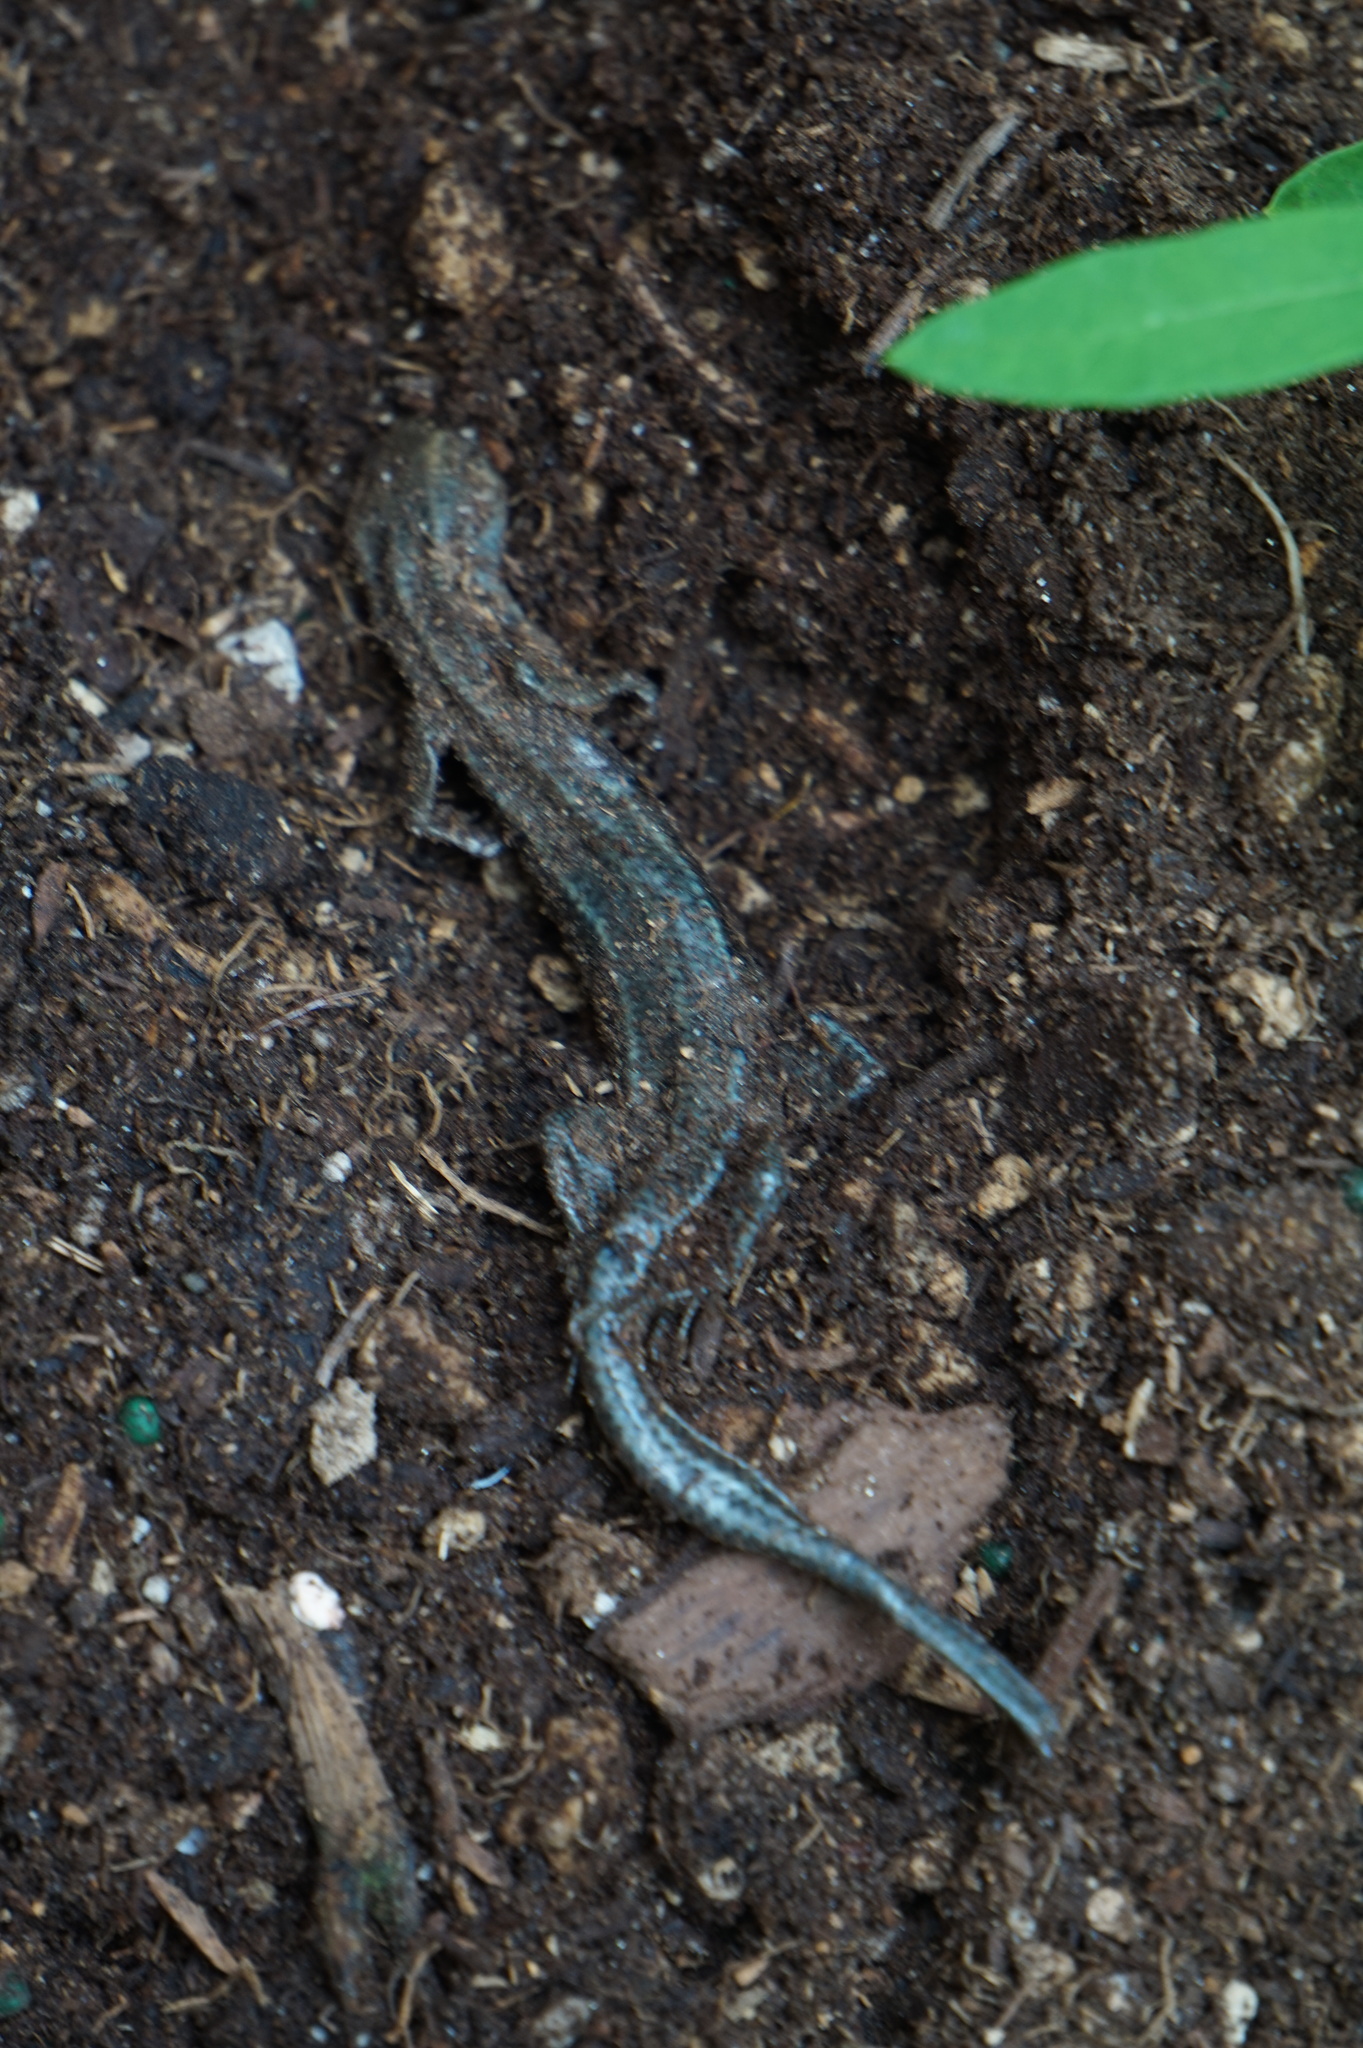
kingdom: Animalia
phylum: Chordata
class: Squamata
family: Scincidae
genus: Plestiodon
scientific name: Plestiodon
